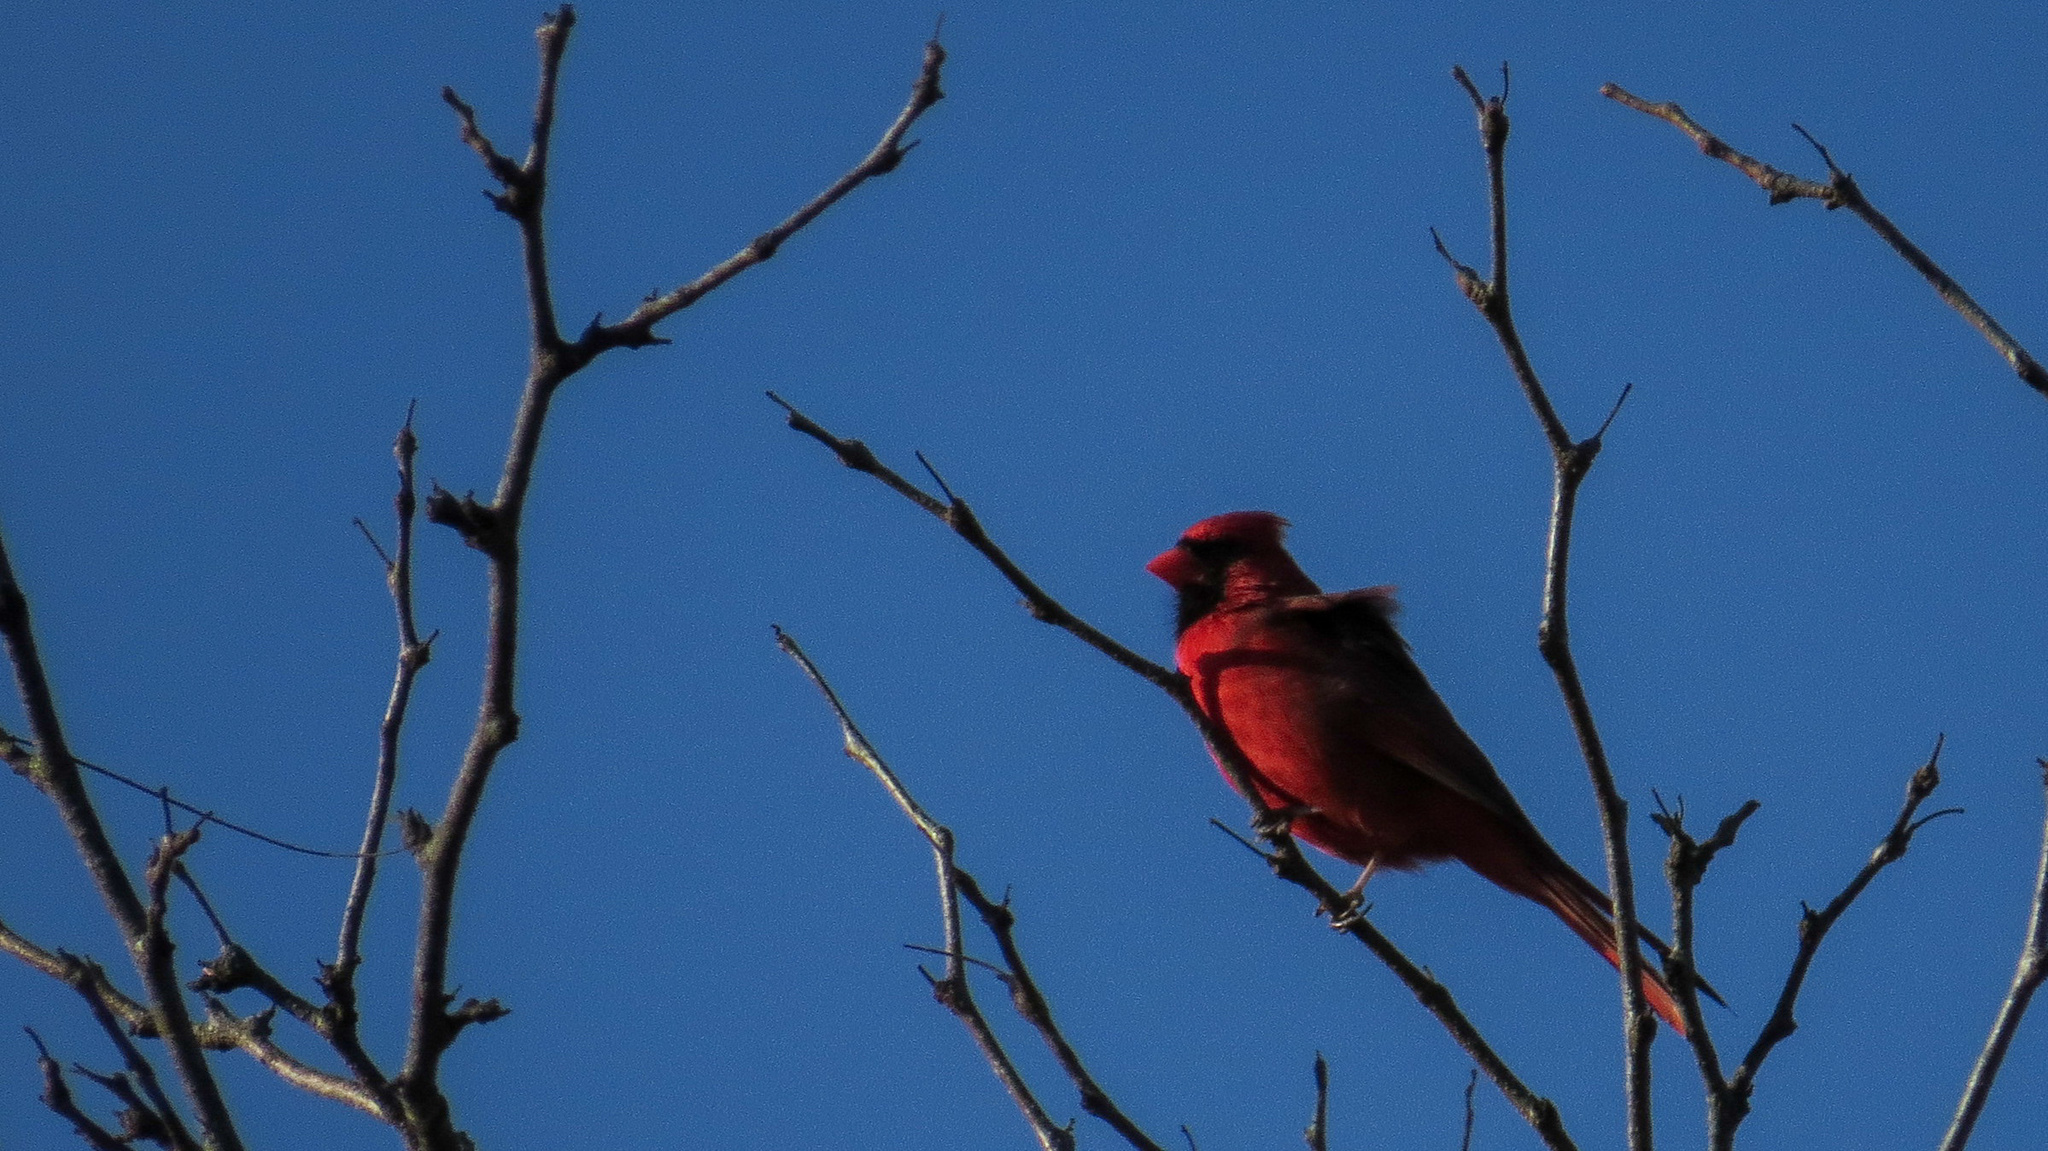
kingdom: Animalia
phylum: Chordata
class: Aves
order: Passeriformes
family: Cardinalidae
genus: Cardinalis
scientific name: Cardinalis cardinalis
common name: Northern cardinal
